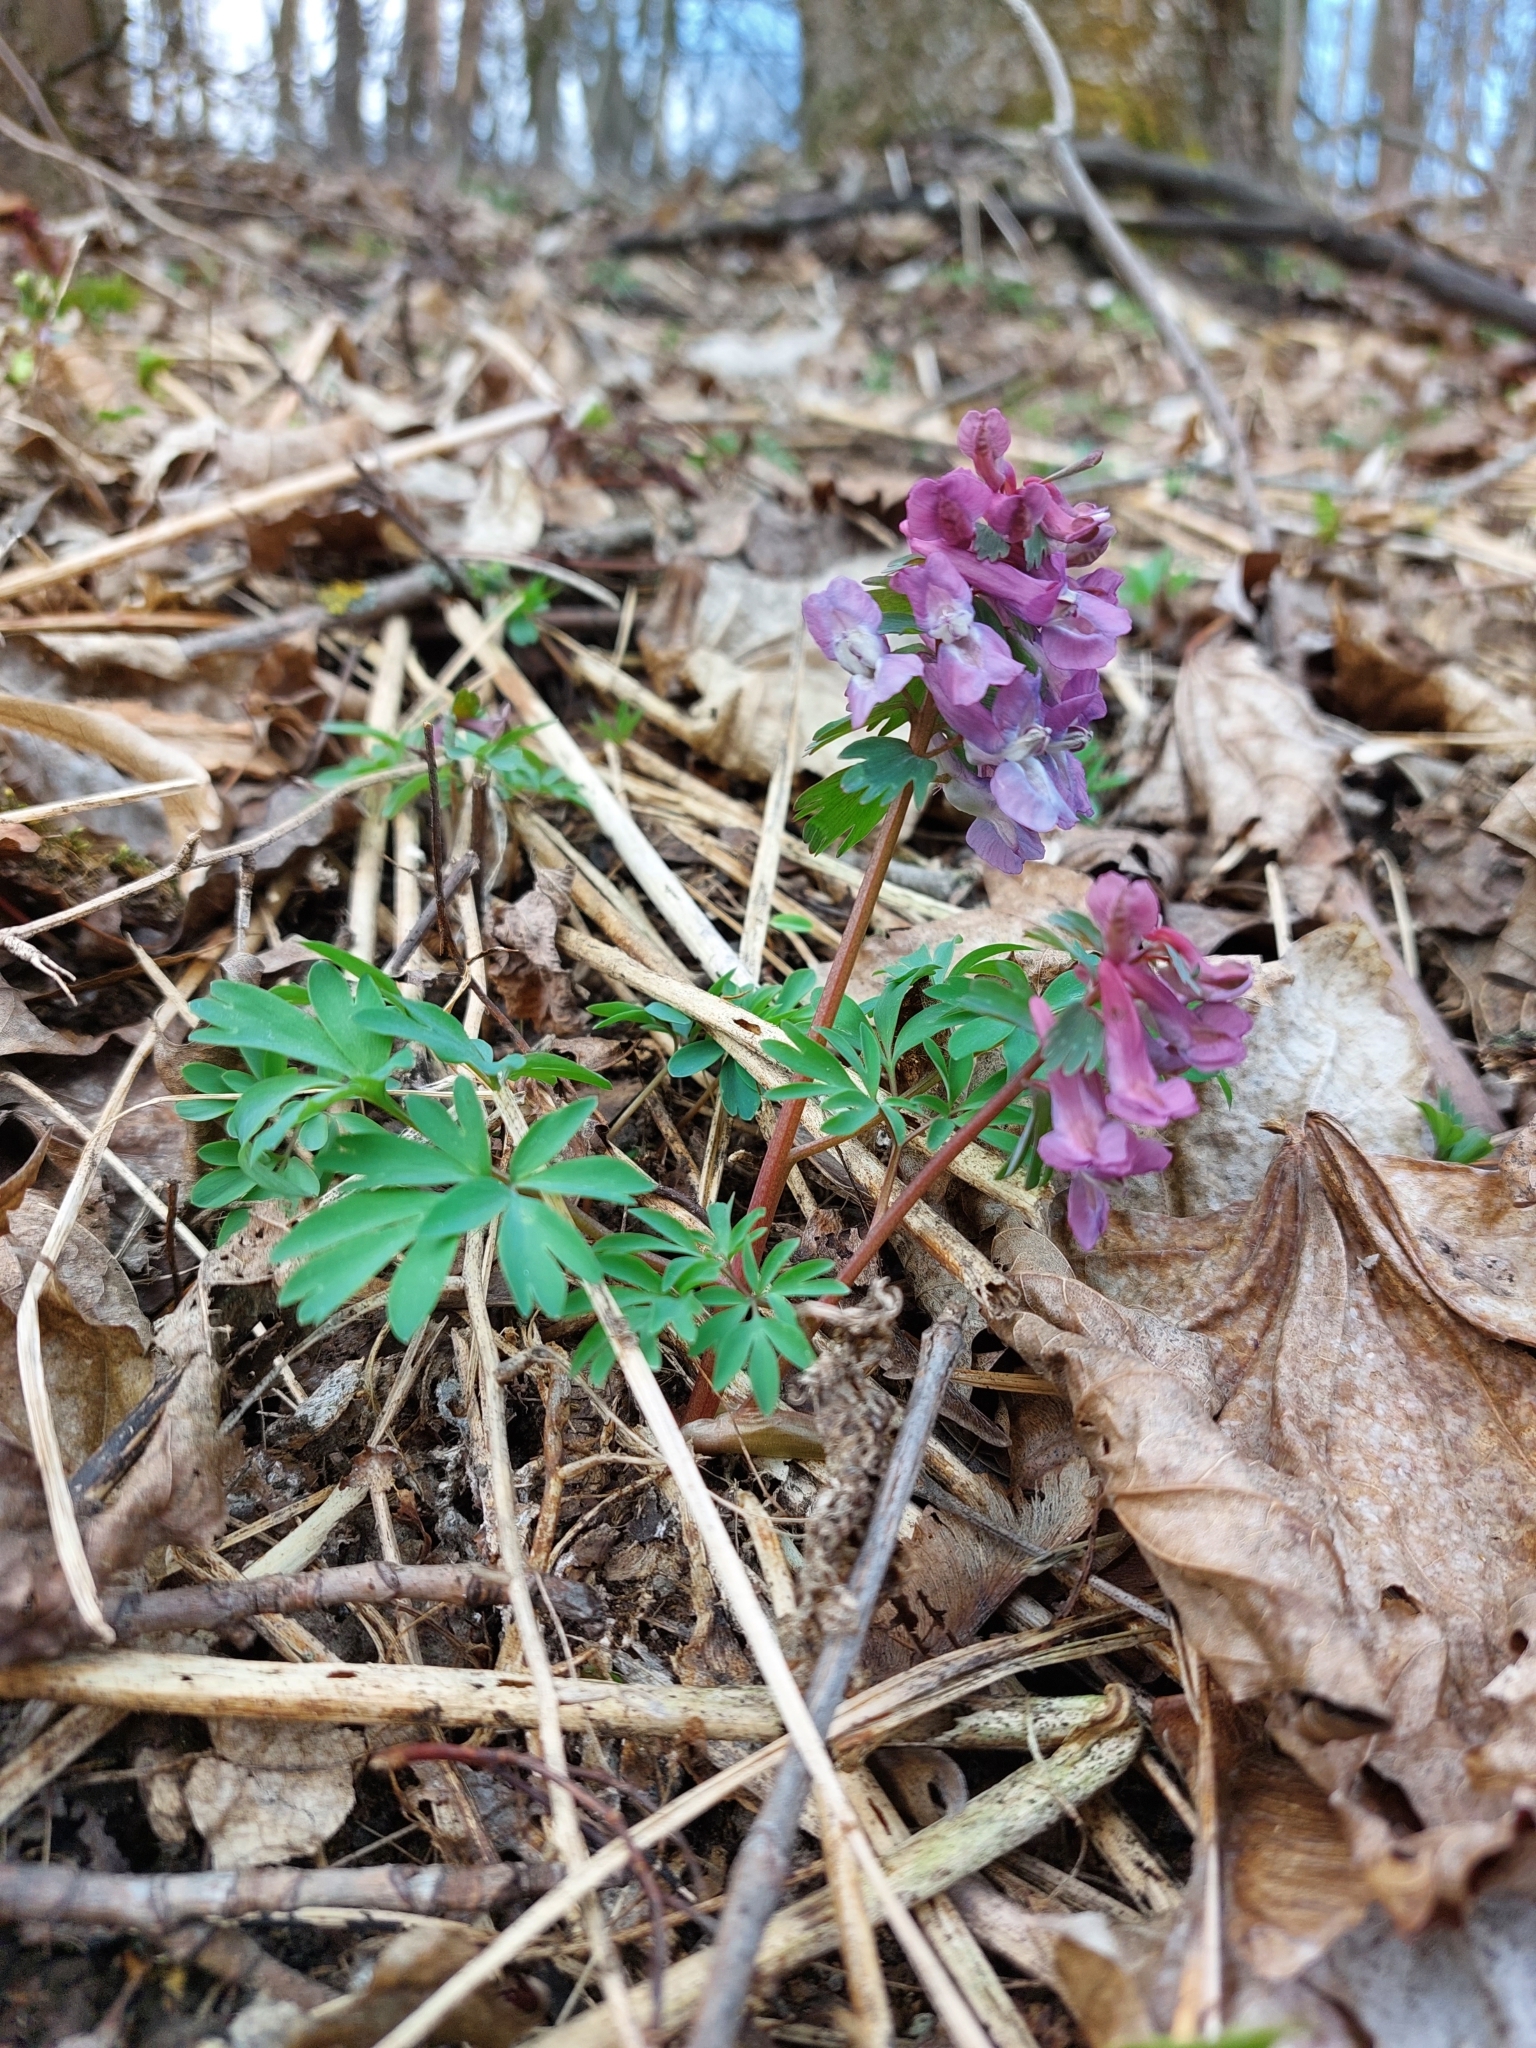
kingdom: Plantae
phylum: Tracheophyta
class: Magnoliopsida
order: Ranunculales
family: Papaveraceae
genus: Corydalis
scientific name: Corydalis solida
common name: Bird-in-a-bush
